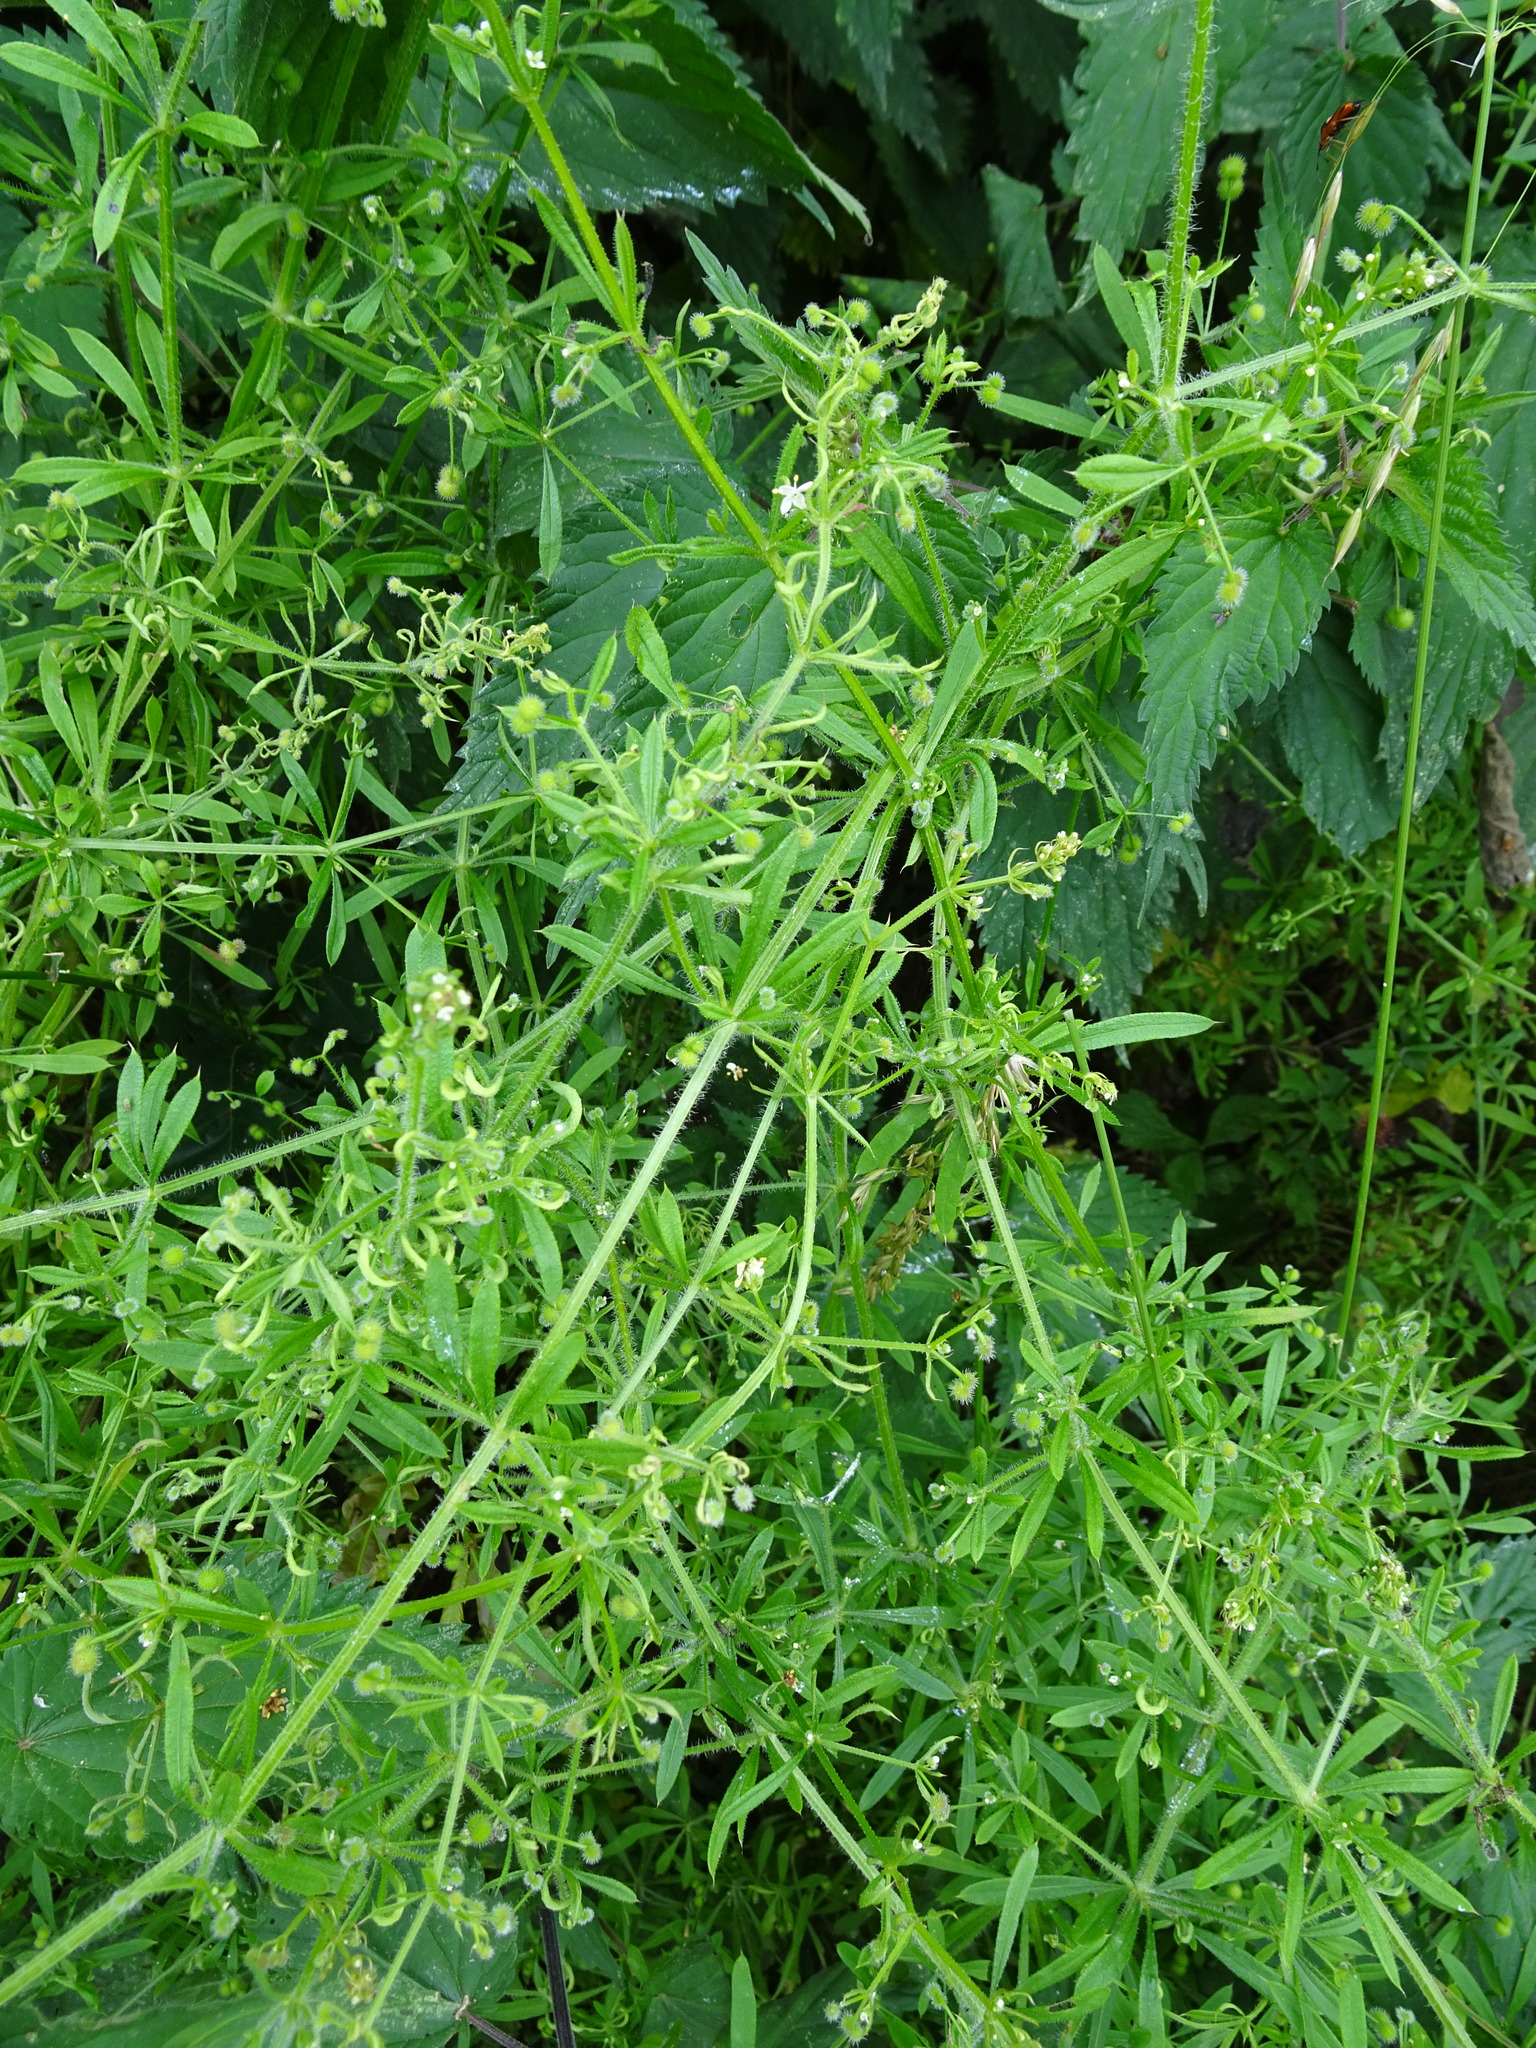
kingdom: Plantae
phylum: Tracheophyta
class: Magnoliopsida
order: Gentianales
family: Rubiaceae
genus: Galium
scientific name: Galium aparine
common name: Cleavers
